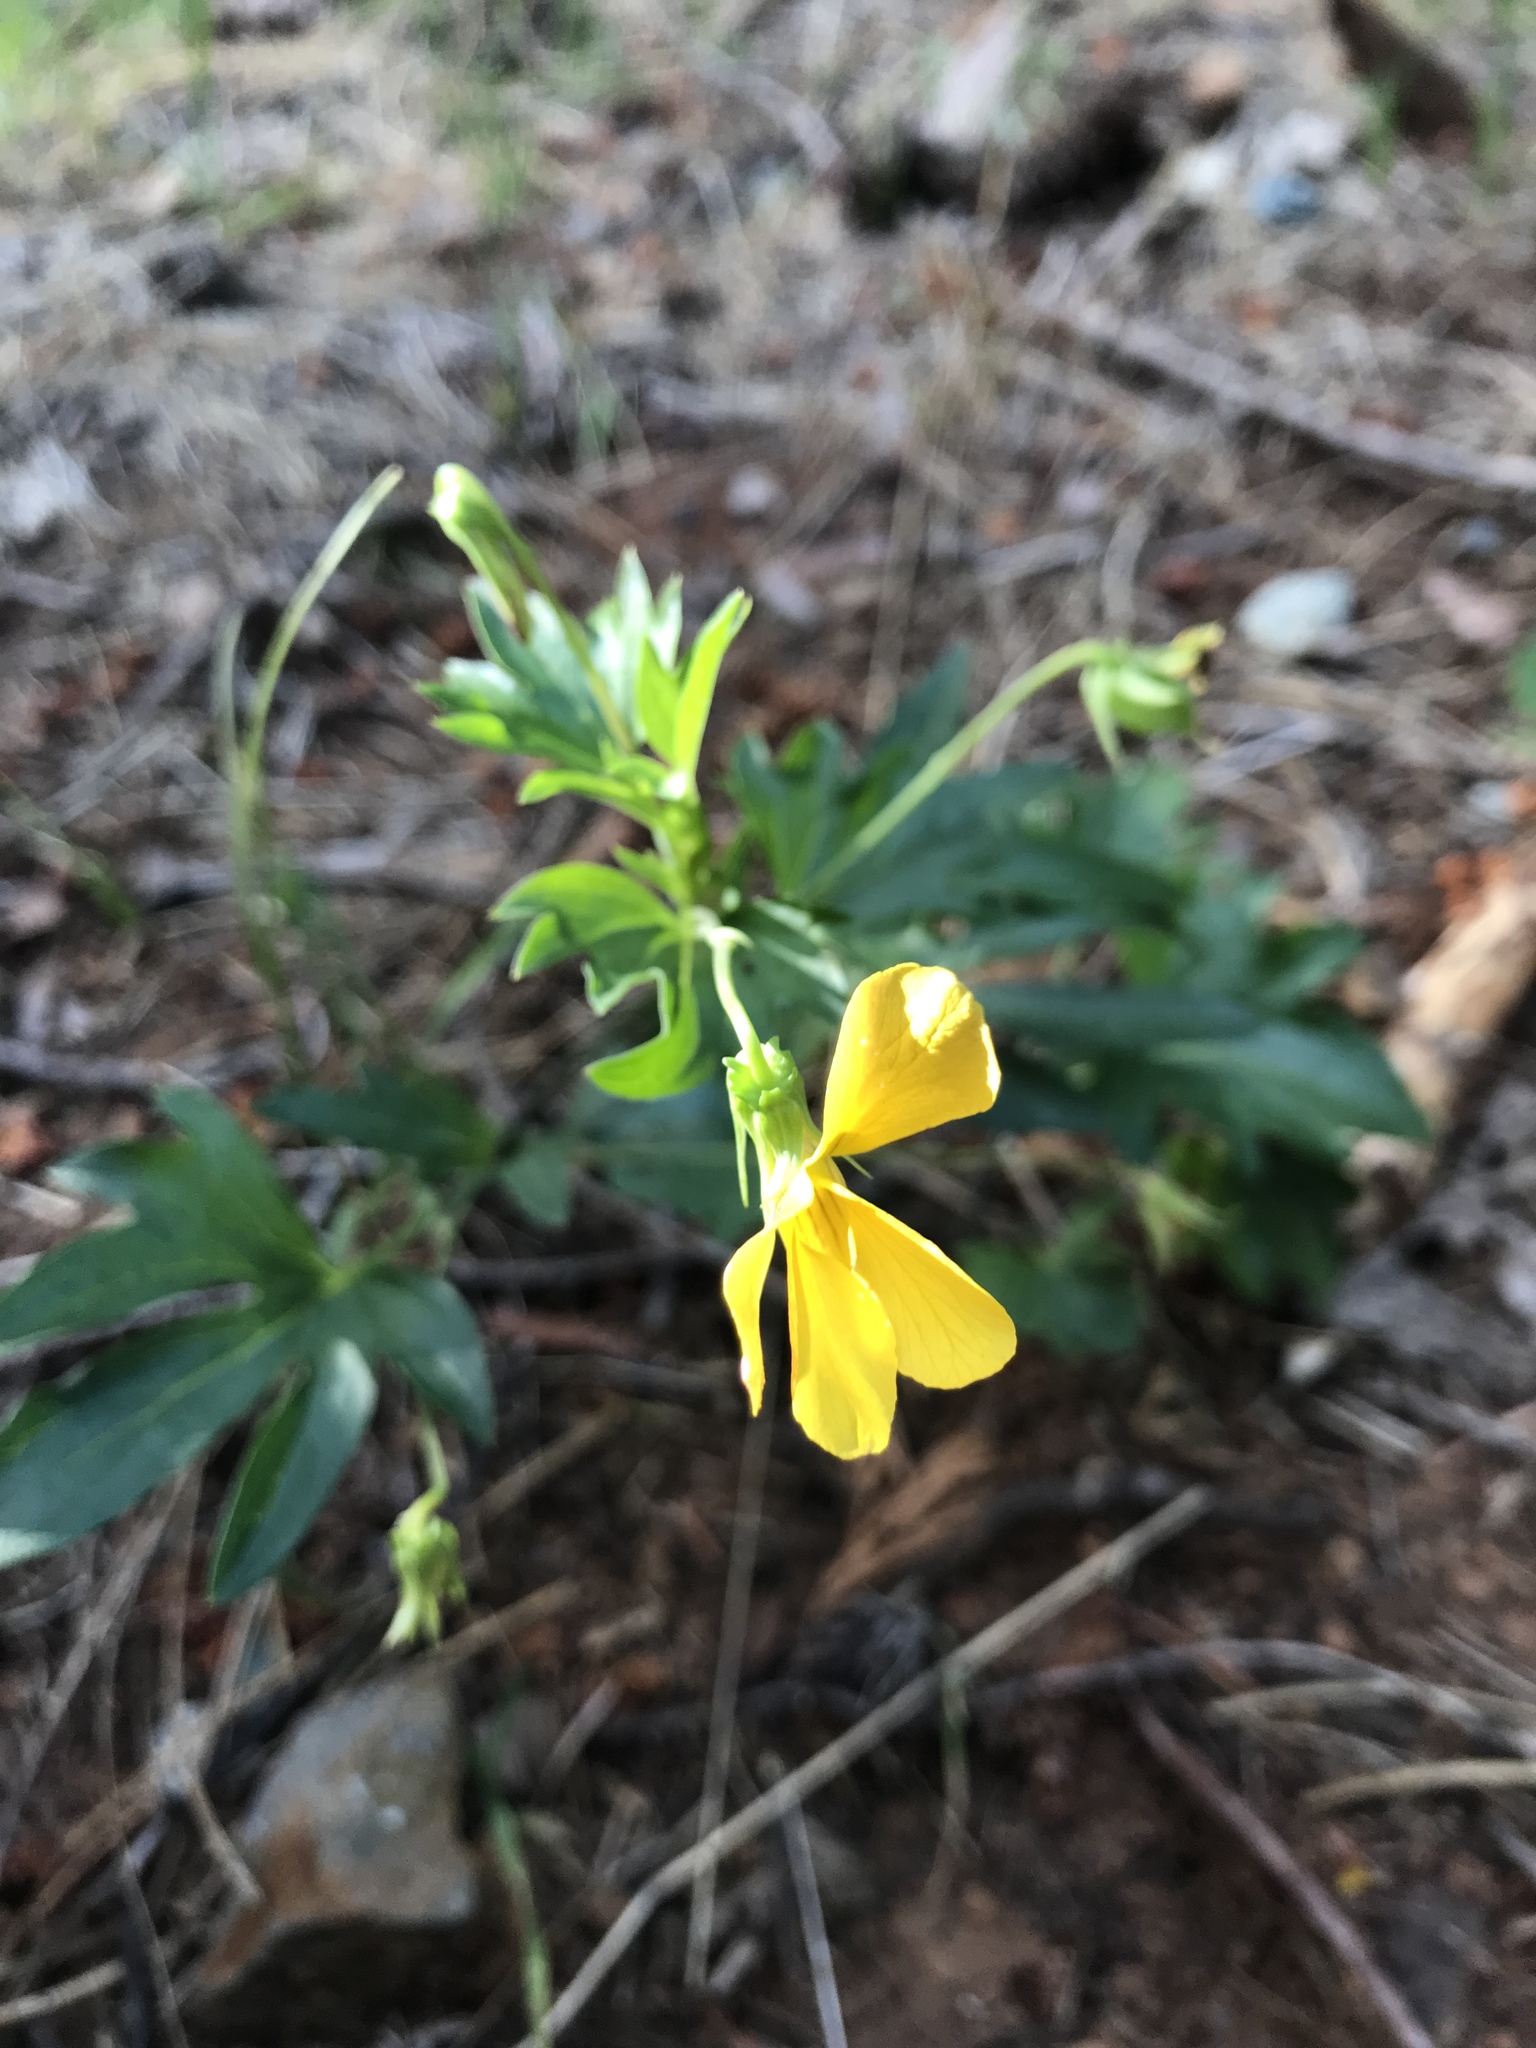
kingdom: Plantae
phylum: Tracheophyta
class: Magnoliopsida
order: Malpighiales
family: Violaceae
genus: Viola
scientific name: Viola lobata
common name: Pine violet
